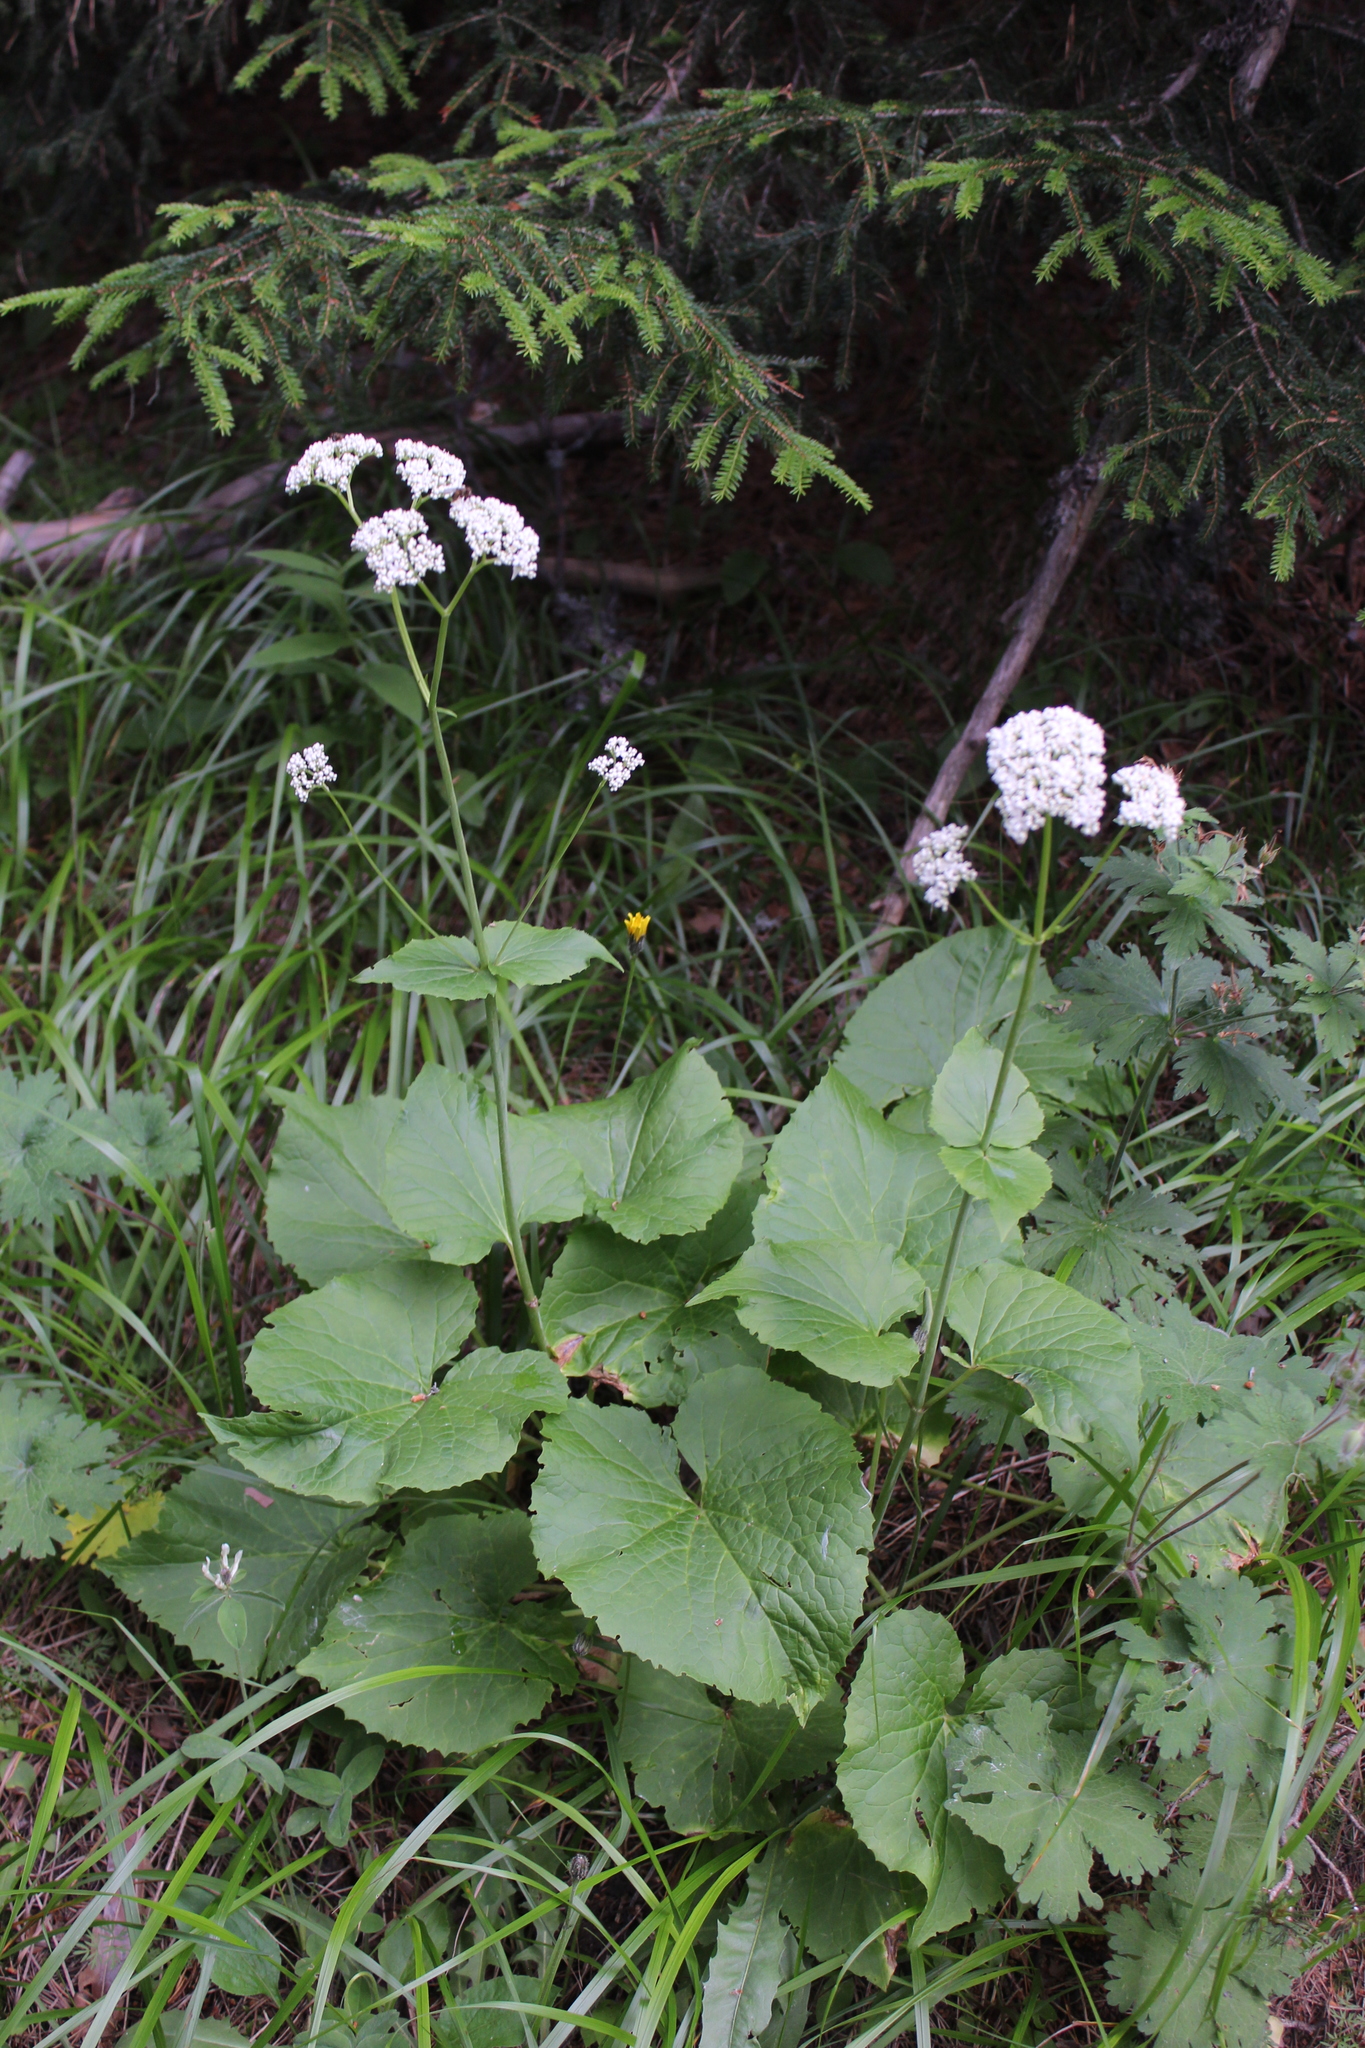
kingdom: Plantae
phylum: Tracheophyta
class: Magnoliopsida
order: Dipsacales
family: Caprifoliaceae
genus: Valeriana
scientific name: Valeriana alliariifolia
